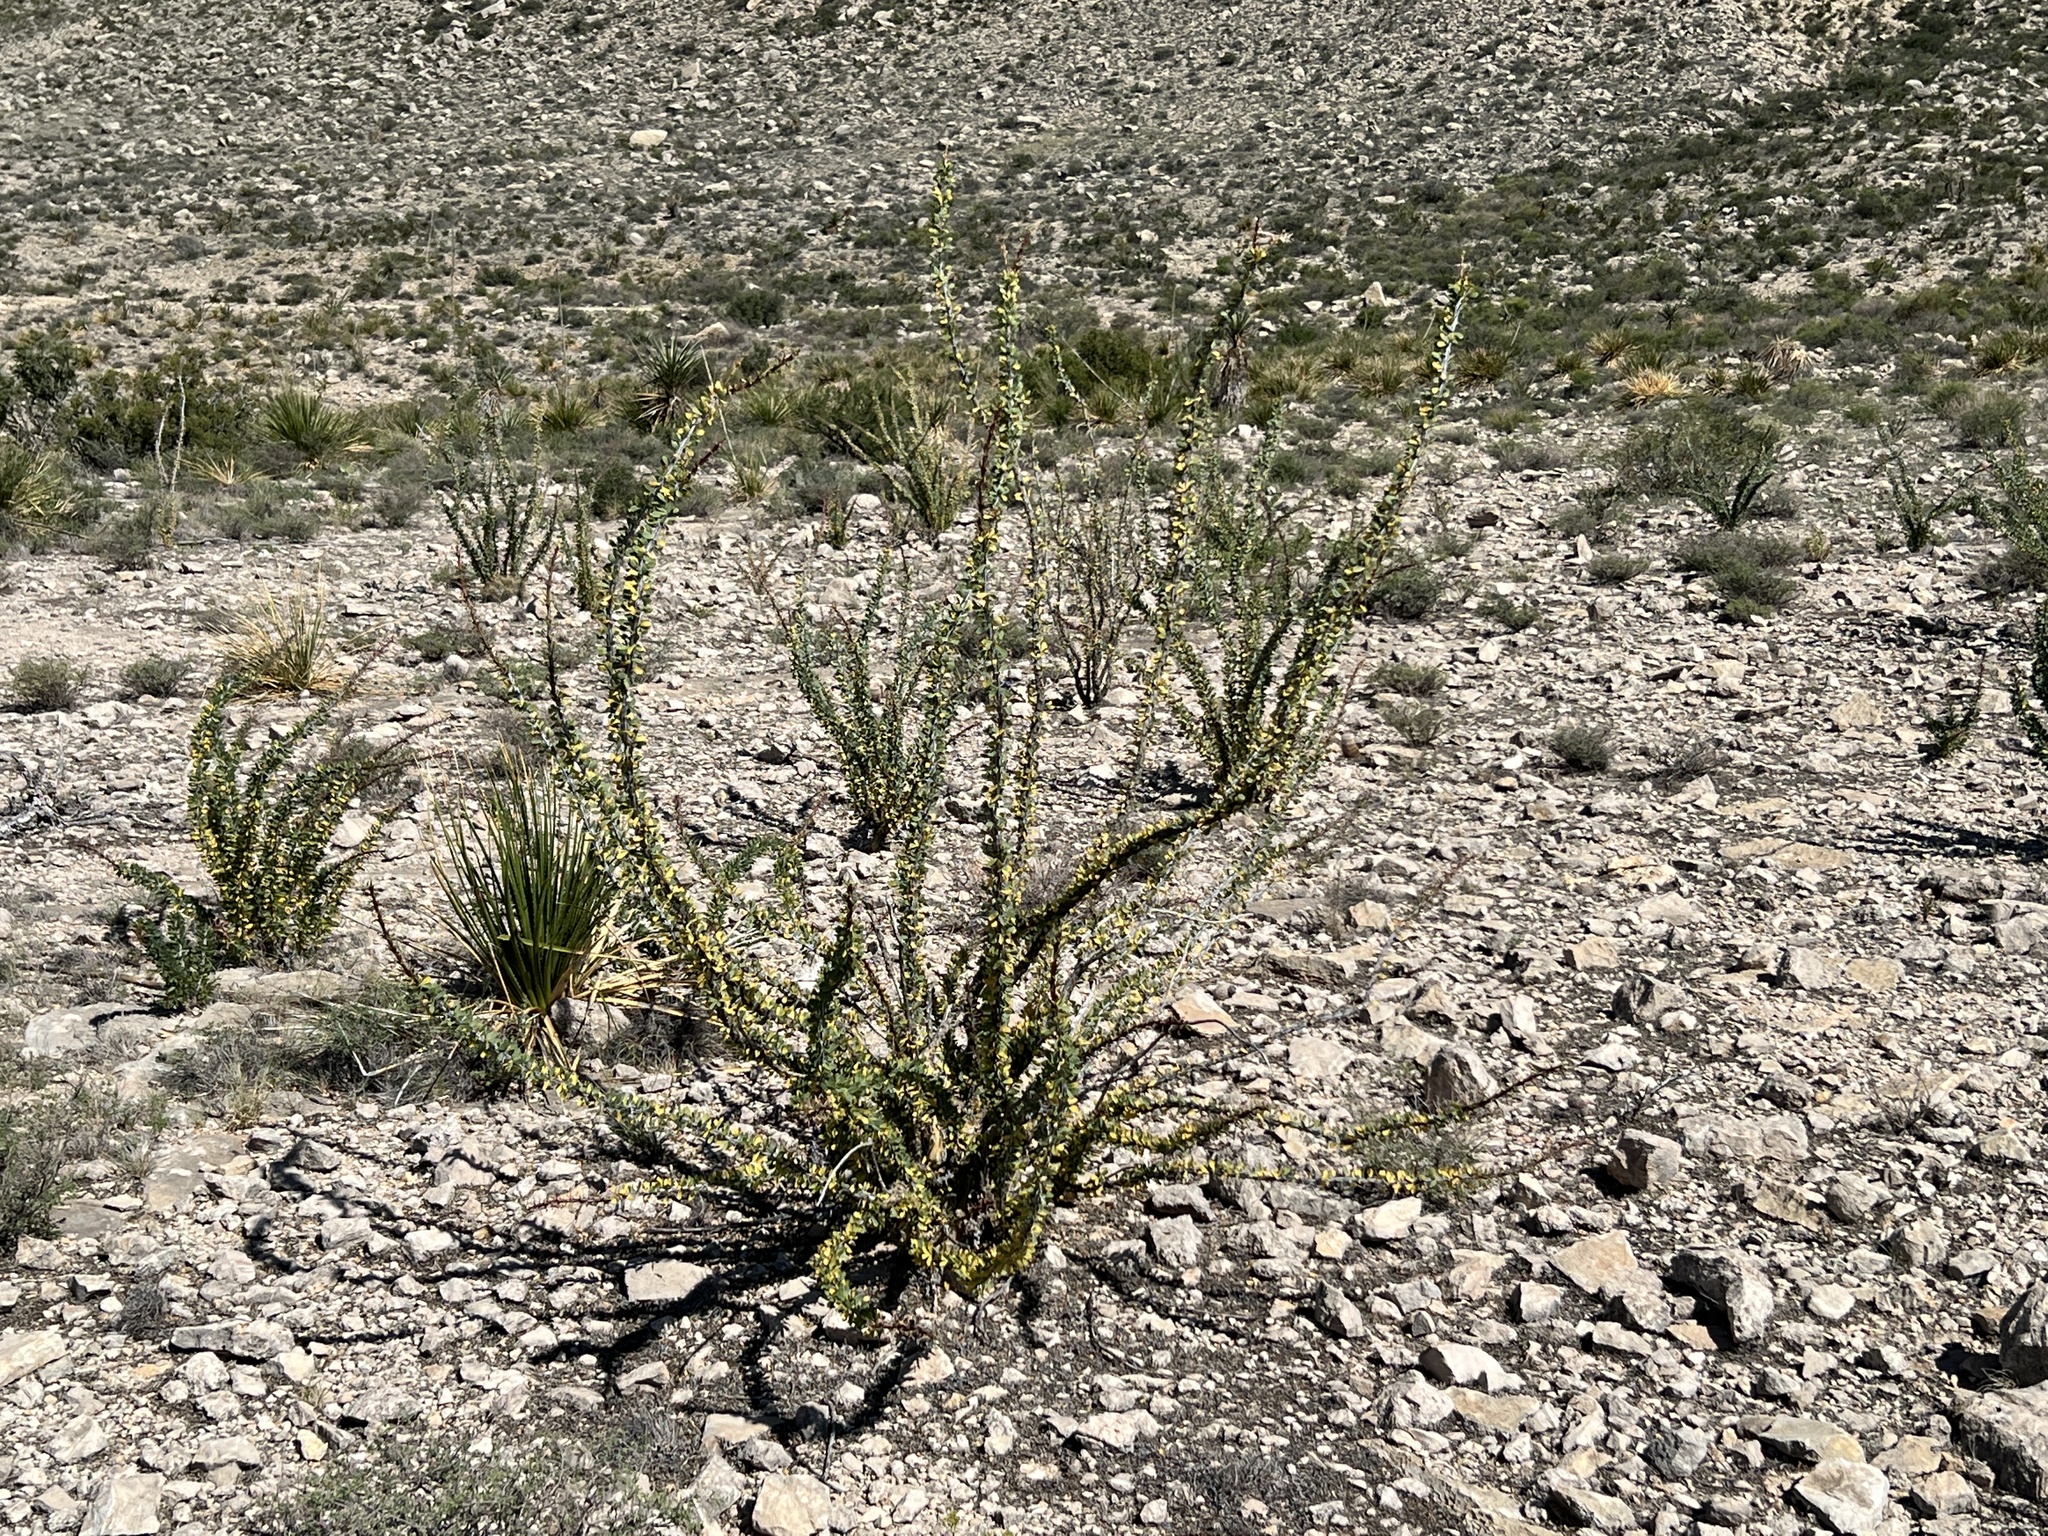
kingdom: Plantae
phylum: Tracheophyta
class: Magnoliopsida
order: Ericales
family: Fouquieriaceae
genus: Fouquieria
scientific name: Fouquieria splendens
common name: Vine-cactus
